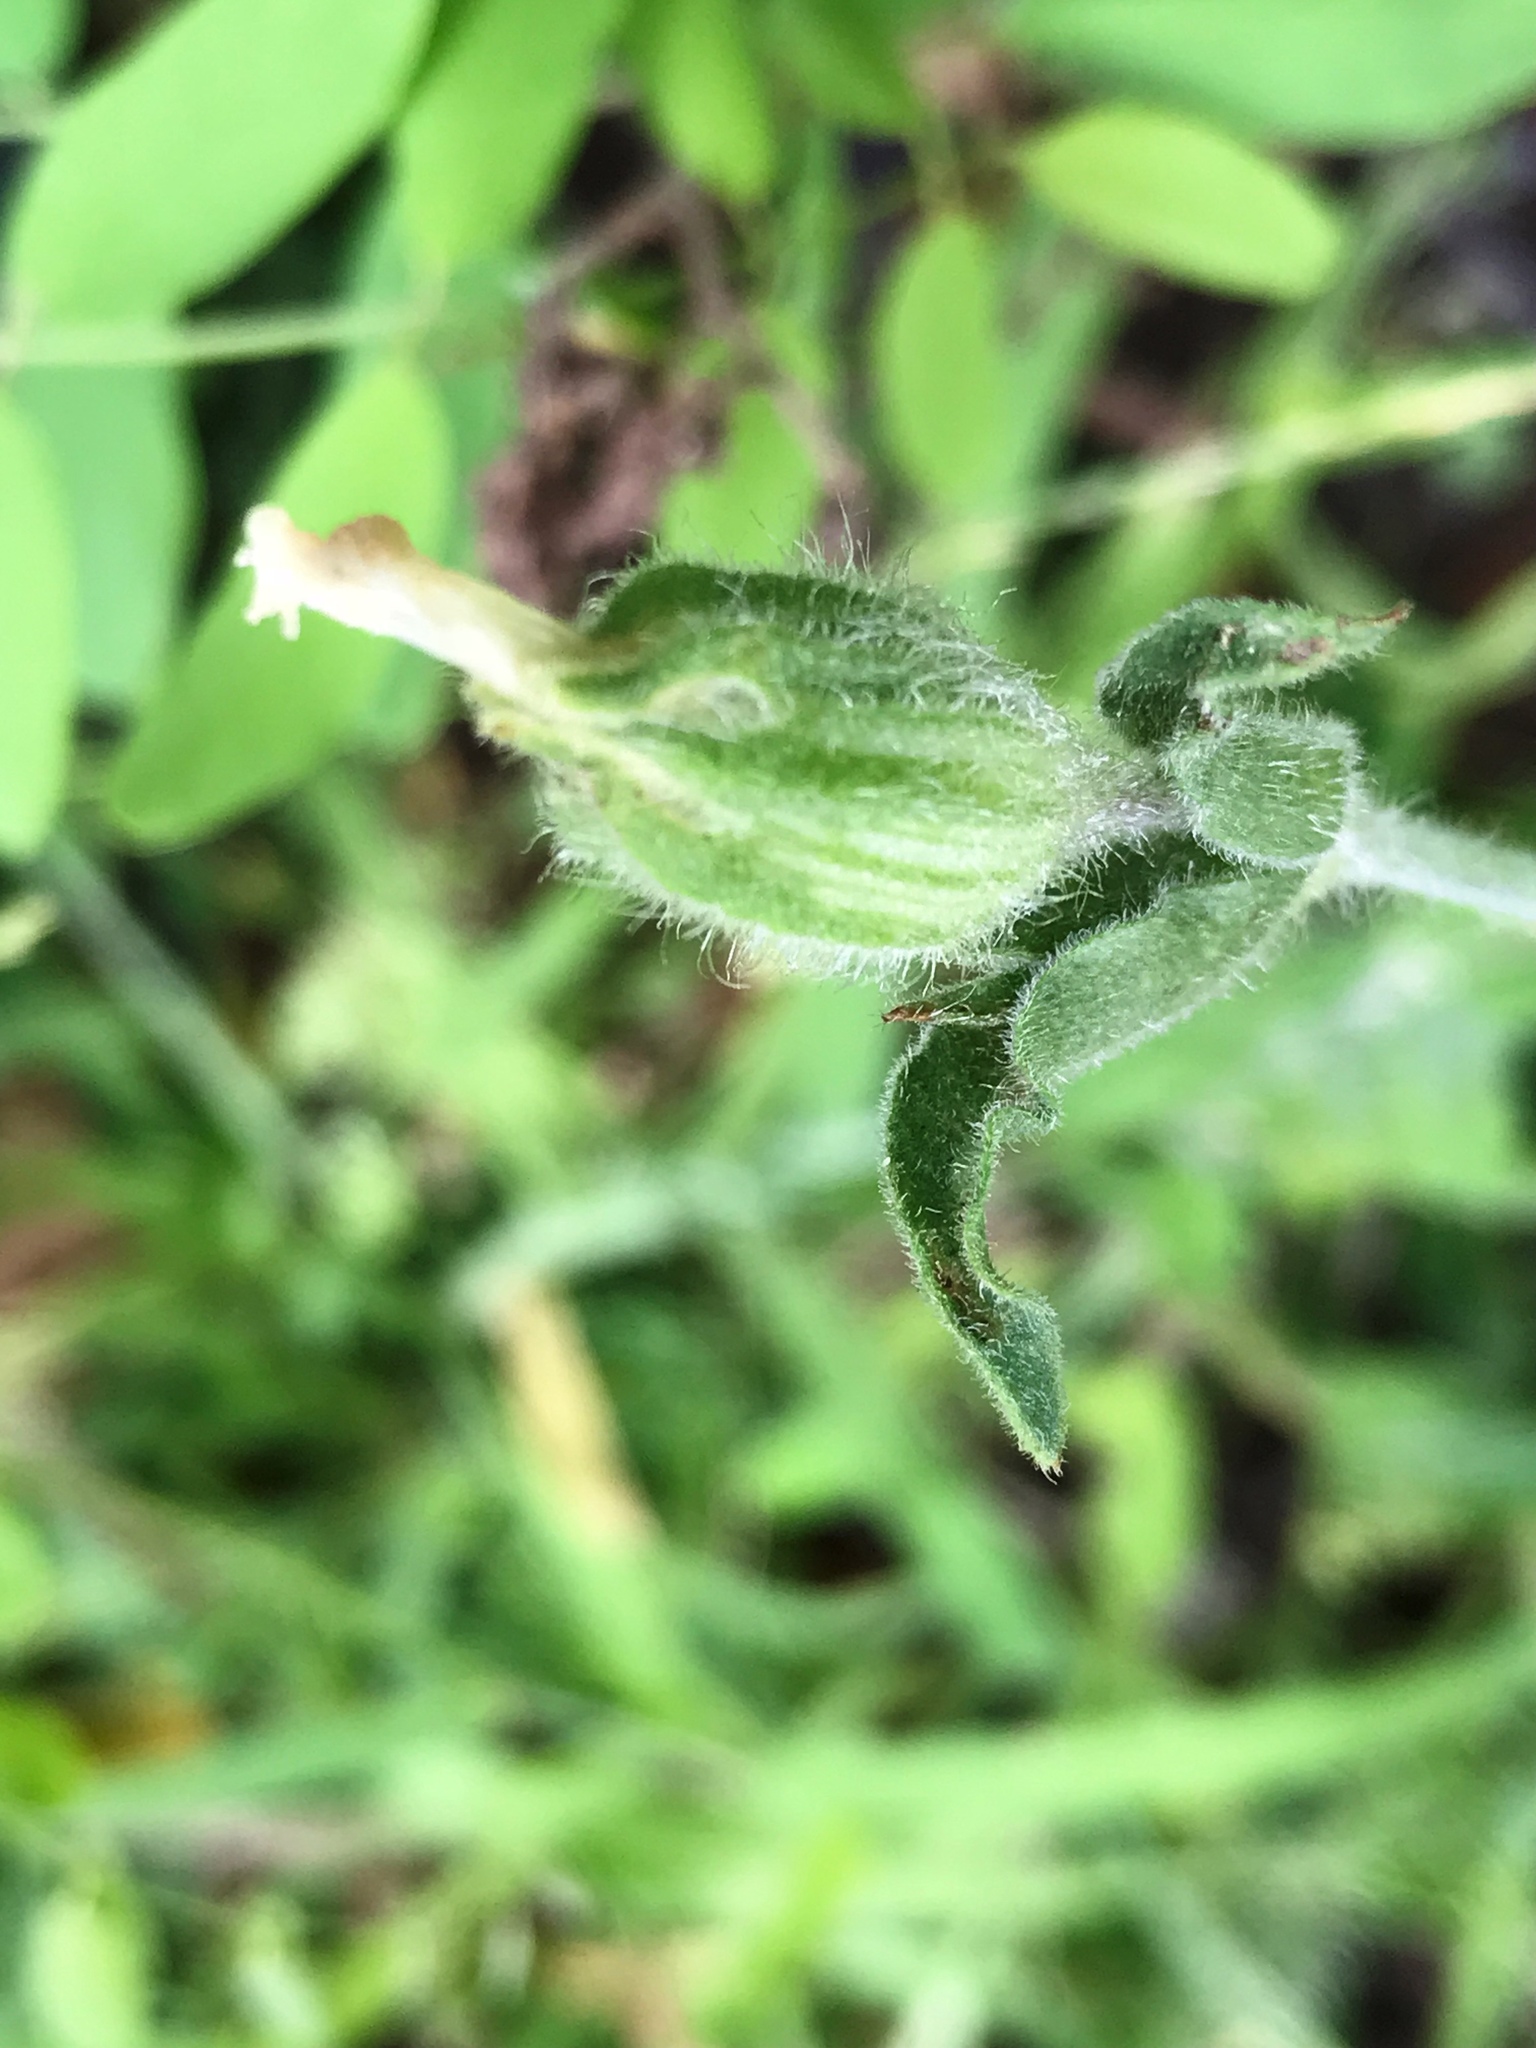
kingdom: Plantae
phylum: Tracheophyta
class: Magnoliopsida
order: Caryophyllales
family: Caryophyllaceae
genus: Silene
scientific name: Silene latifolia
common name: White campion
